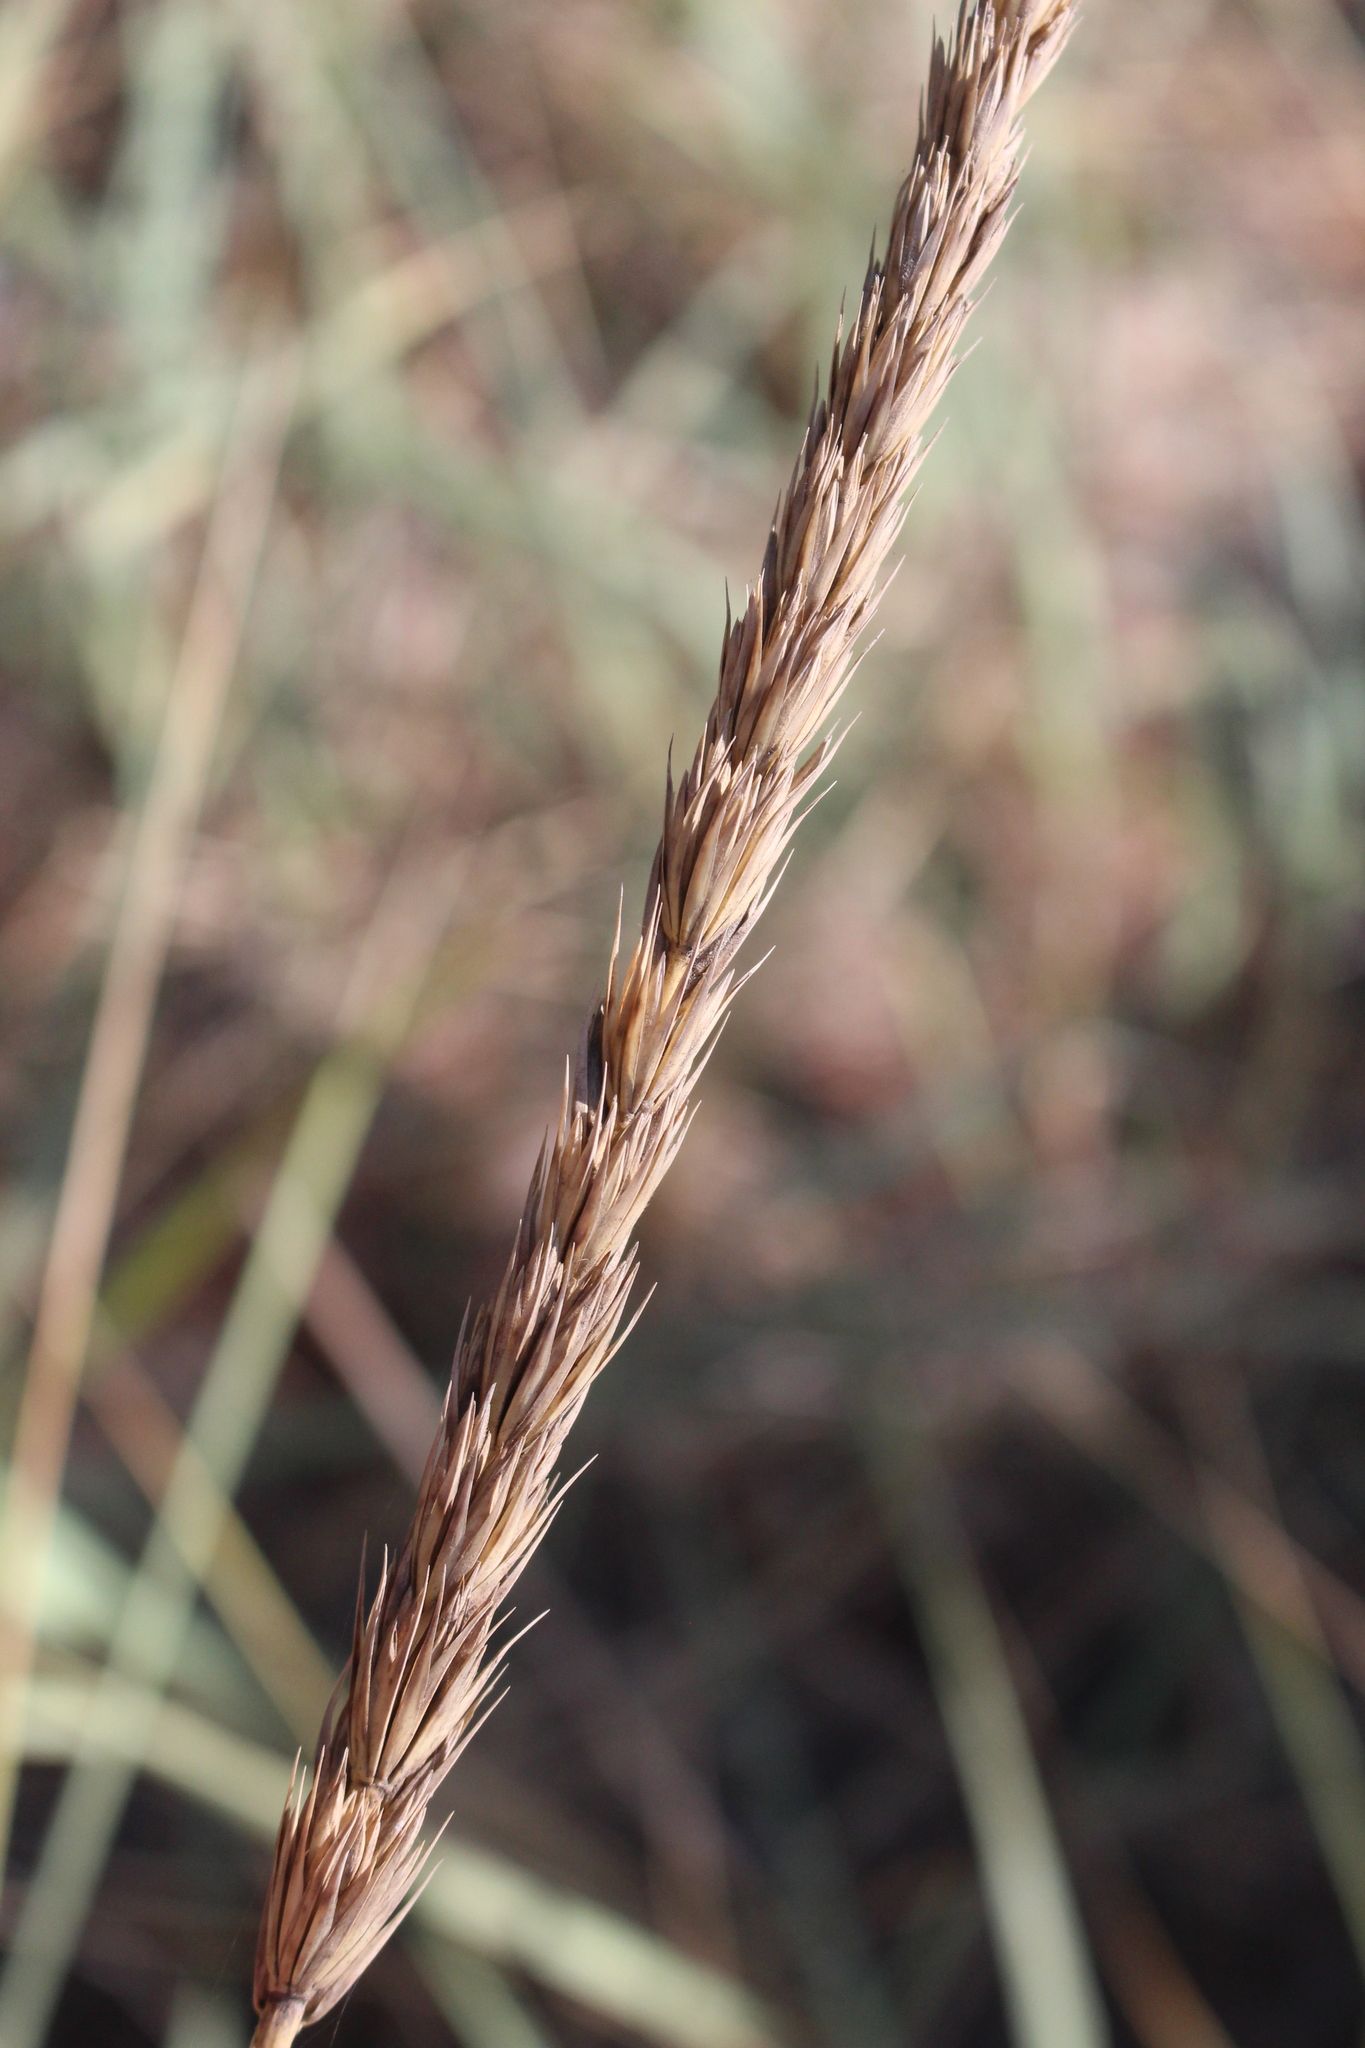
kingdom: Plantae
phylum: Tracheophyta
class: Liliopsida
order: Poales
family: Poaceae
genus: Leymus
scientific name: Leymus racemosus
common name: Mammoth wildrye
